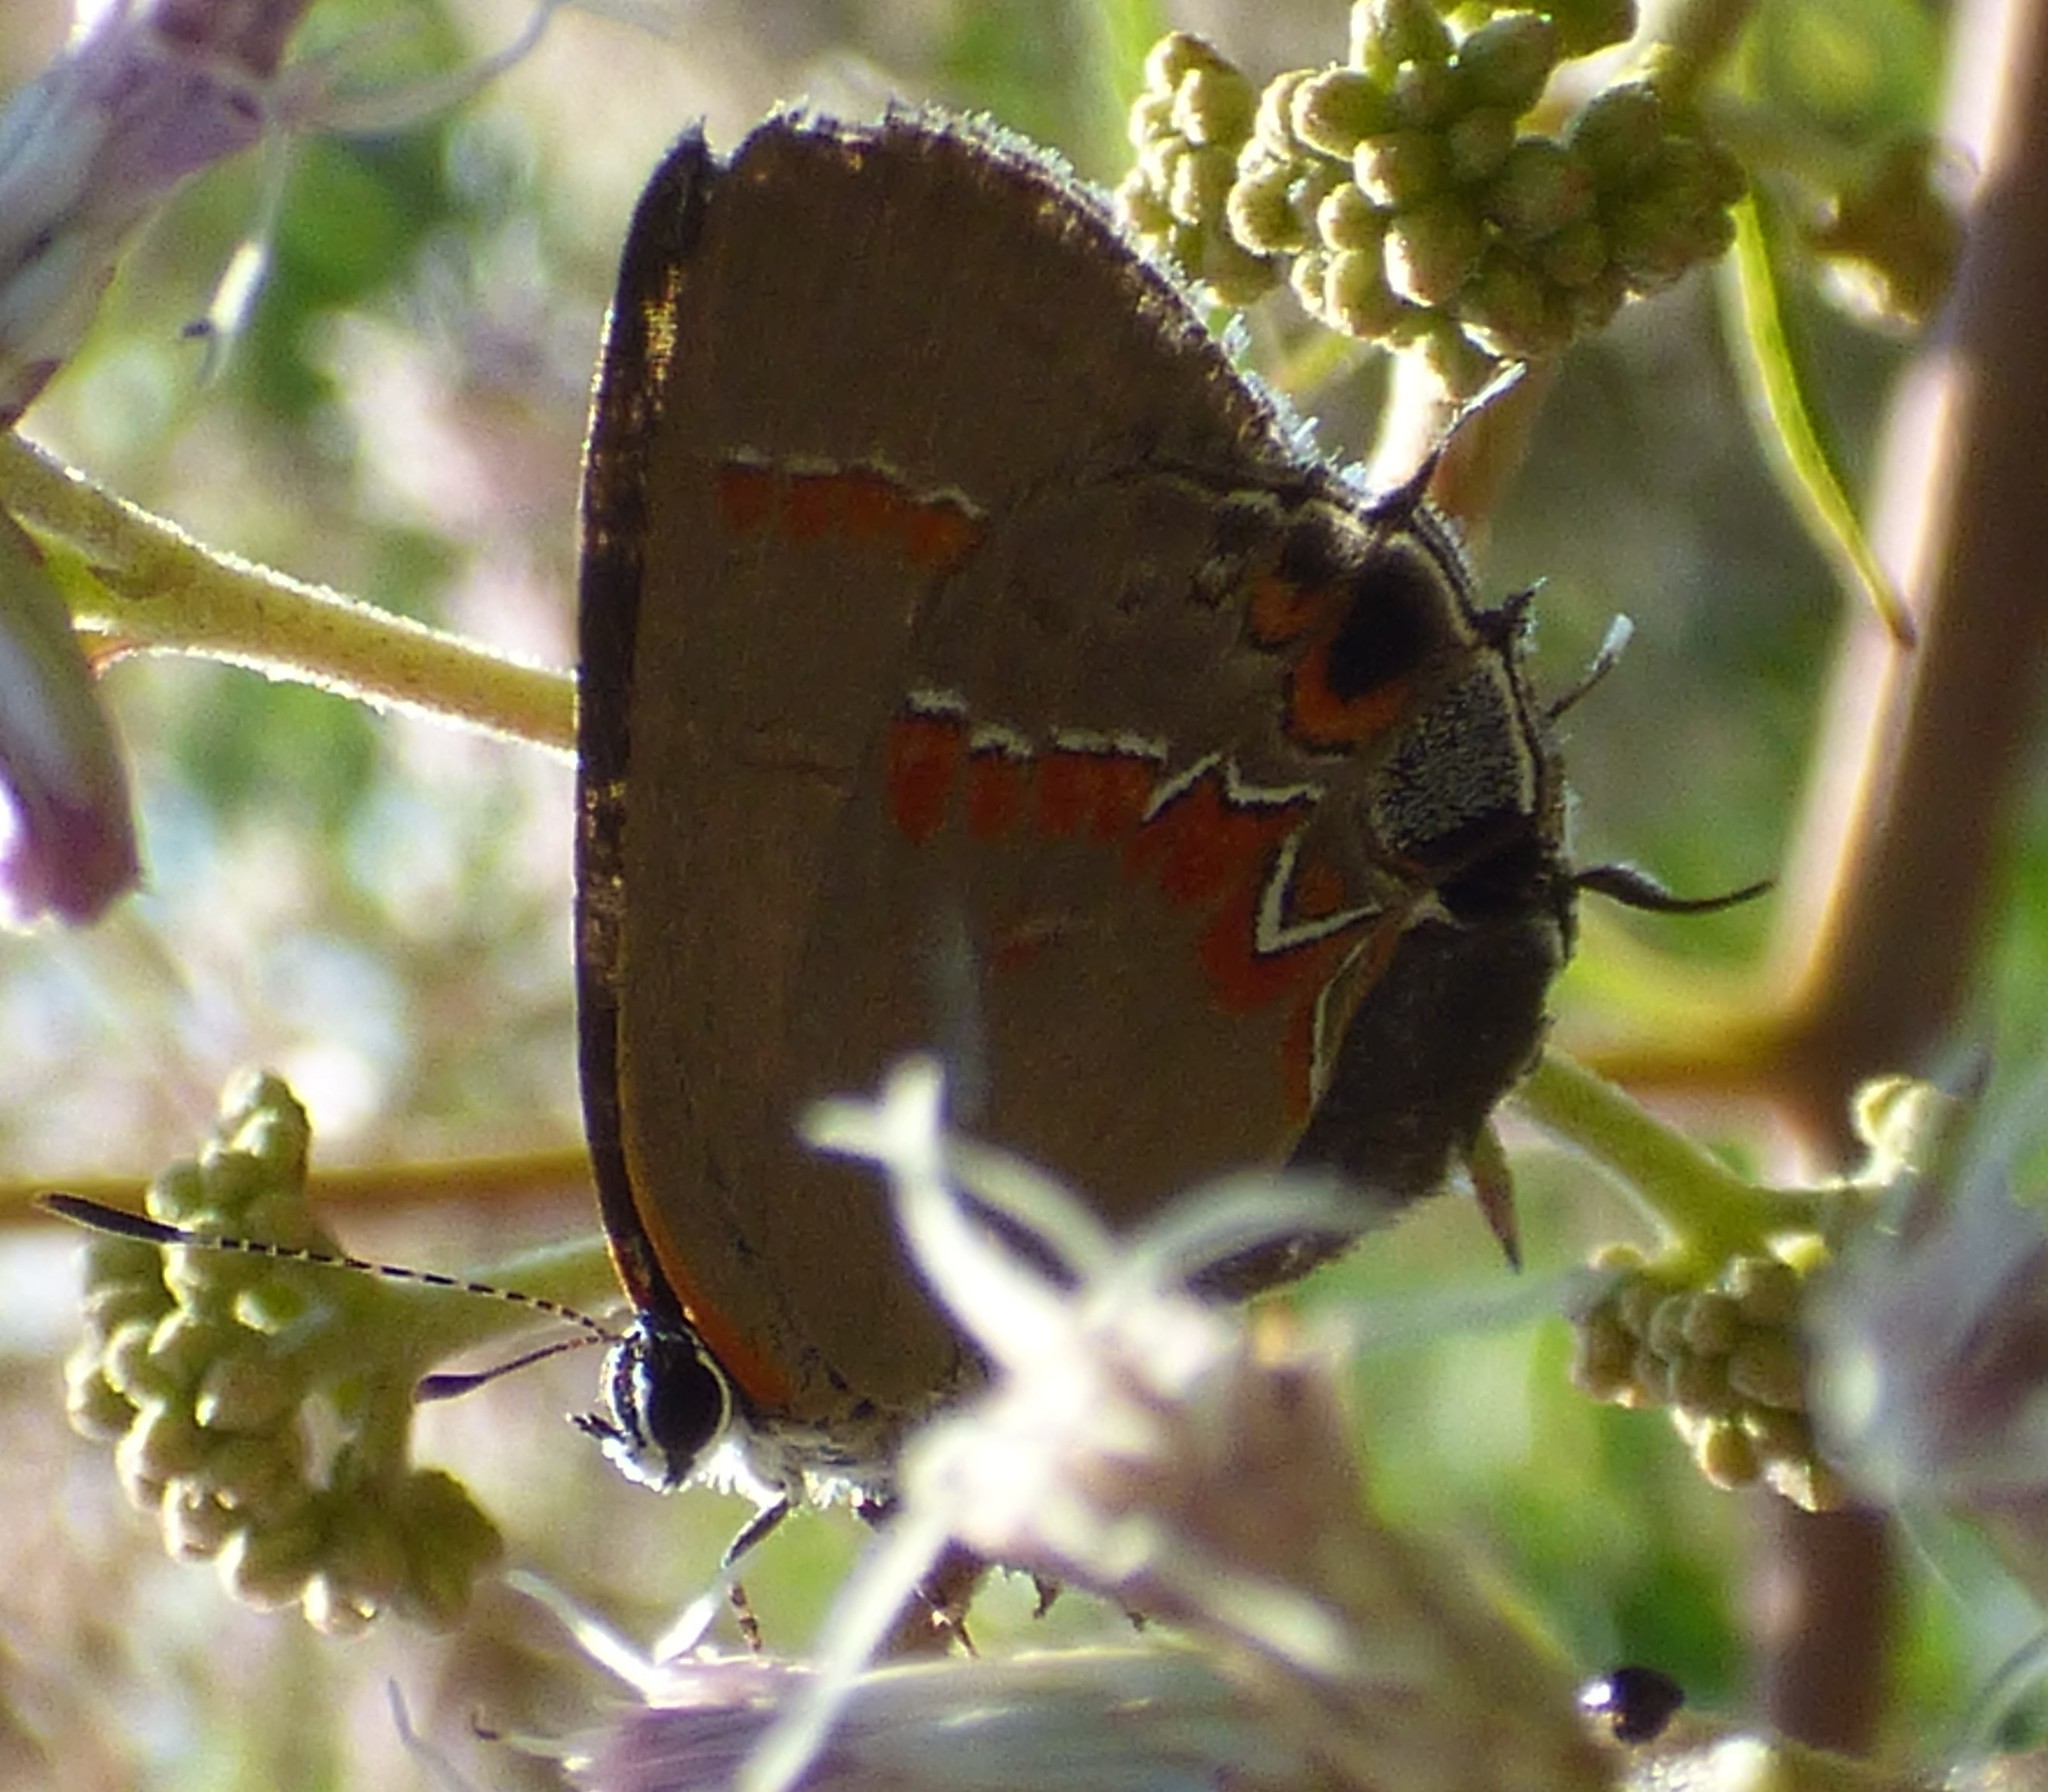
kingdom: Animalia
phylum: Arthropoda
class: Insecta
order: Lepidoptera
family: Lycaenidae
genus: Calycopis
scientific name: Calycopis cecrops
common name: Red-banded hairstreak
